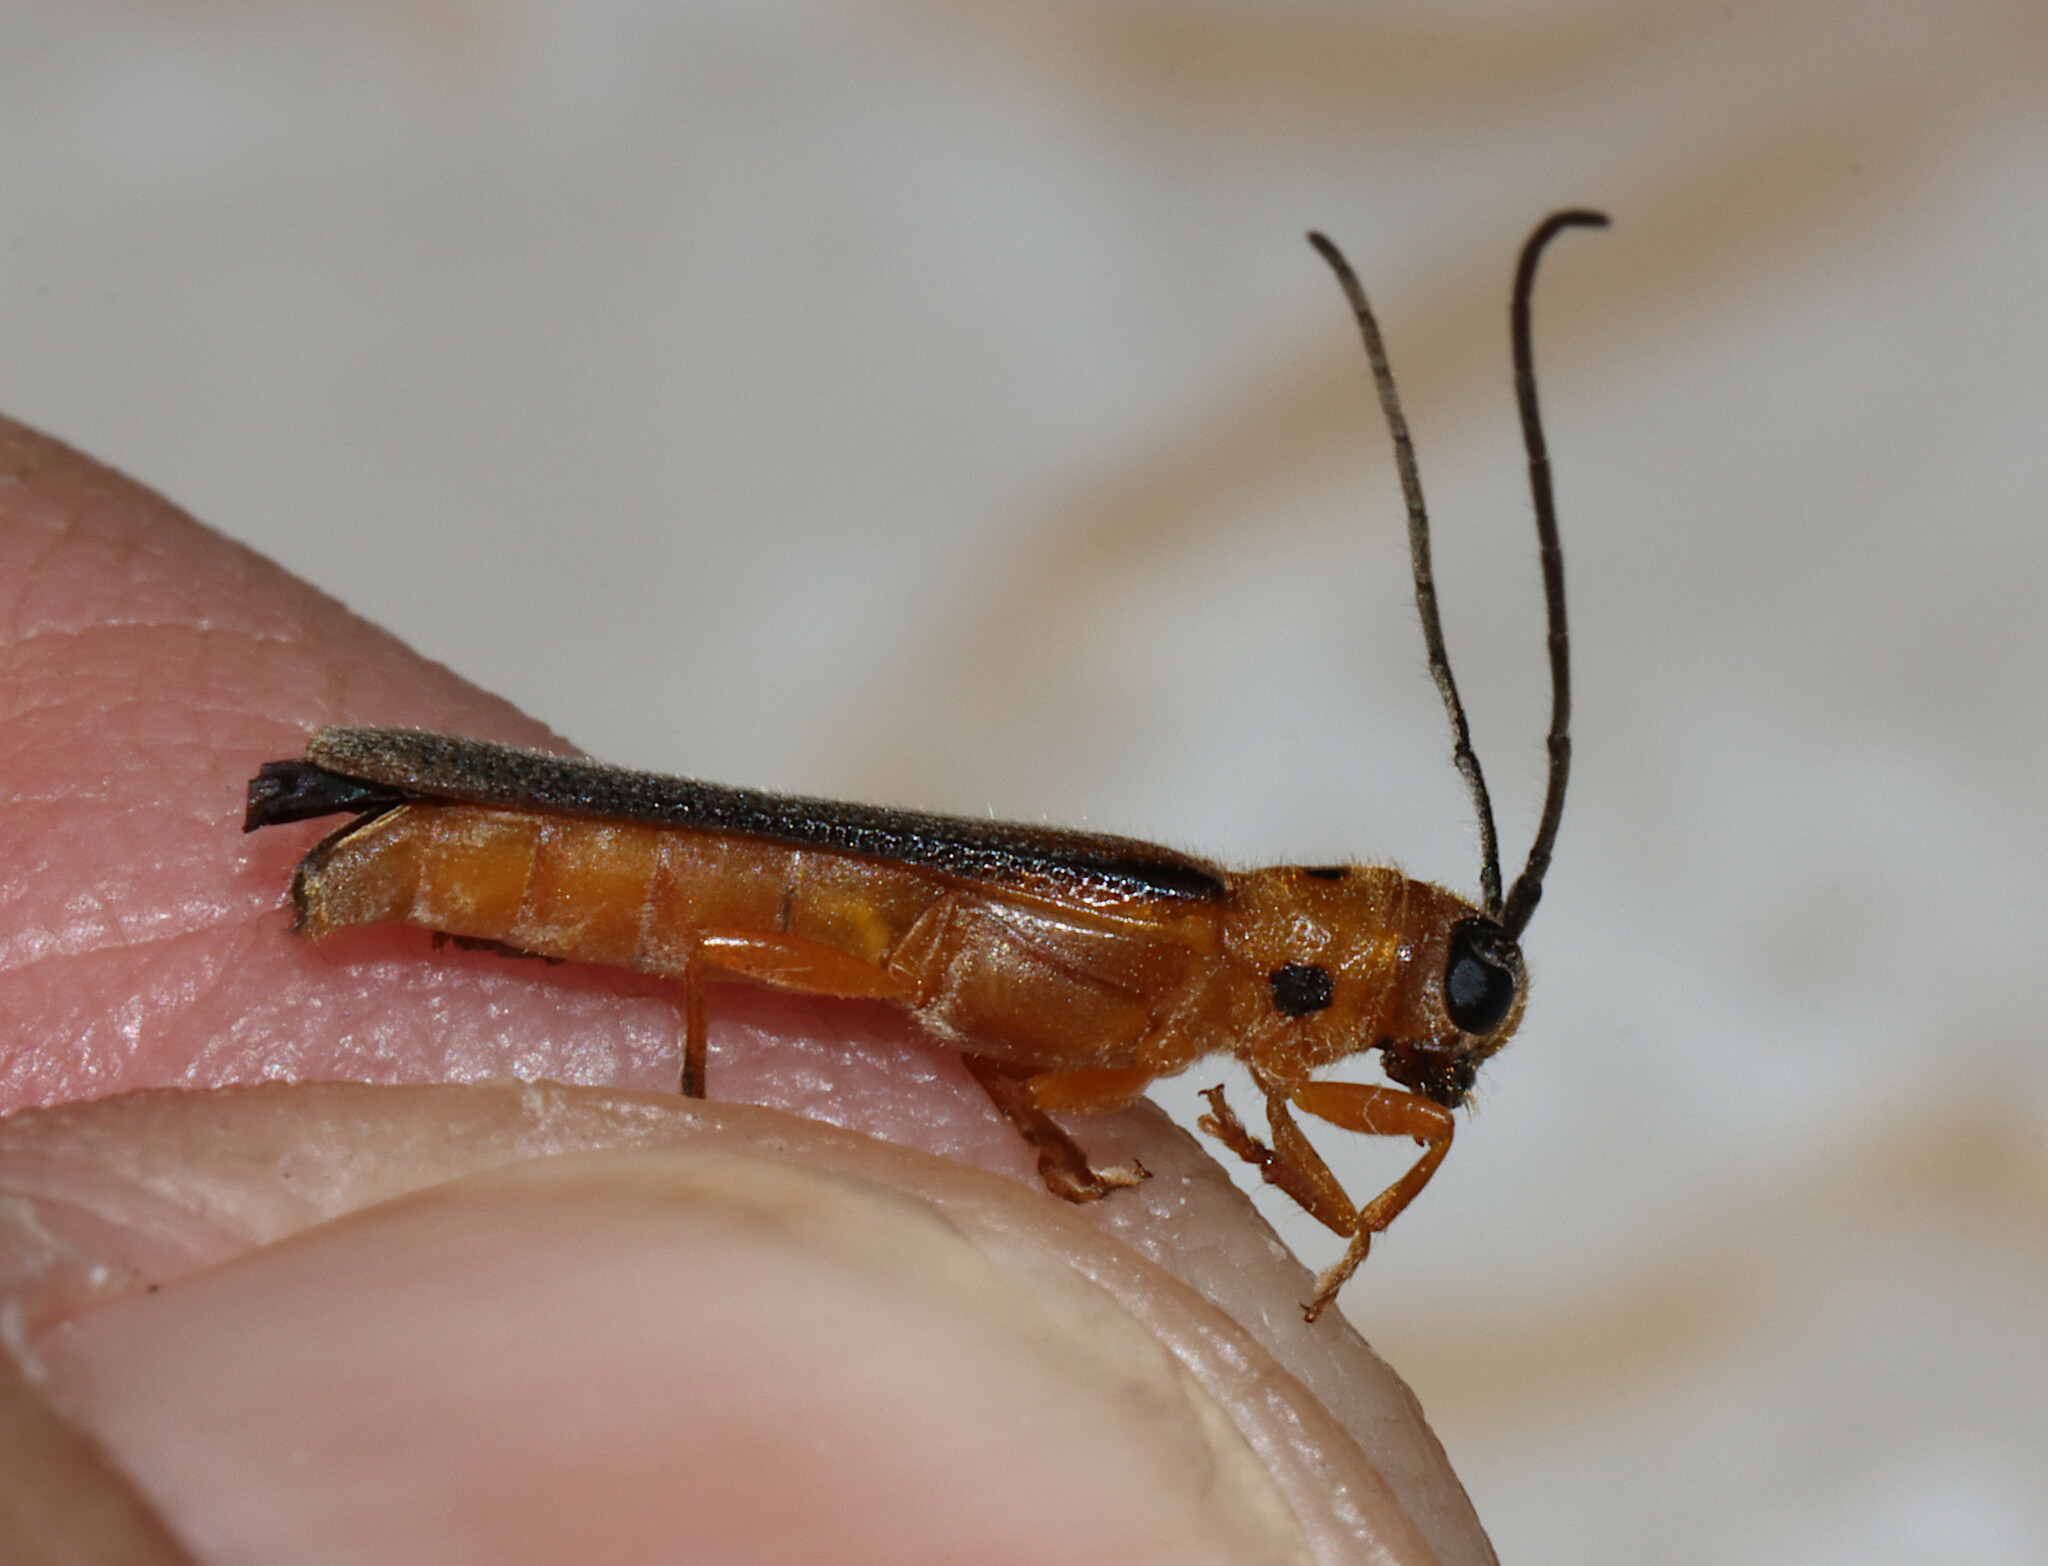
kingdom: Animalia
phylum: Arthropoda
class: Insecta
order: Coleoptera
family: Cerambycidae
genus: Oberea
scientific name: Oberea deficiens
